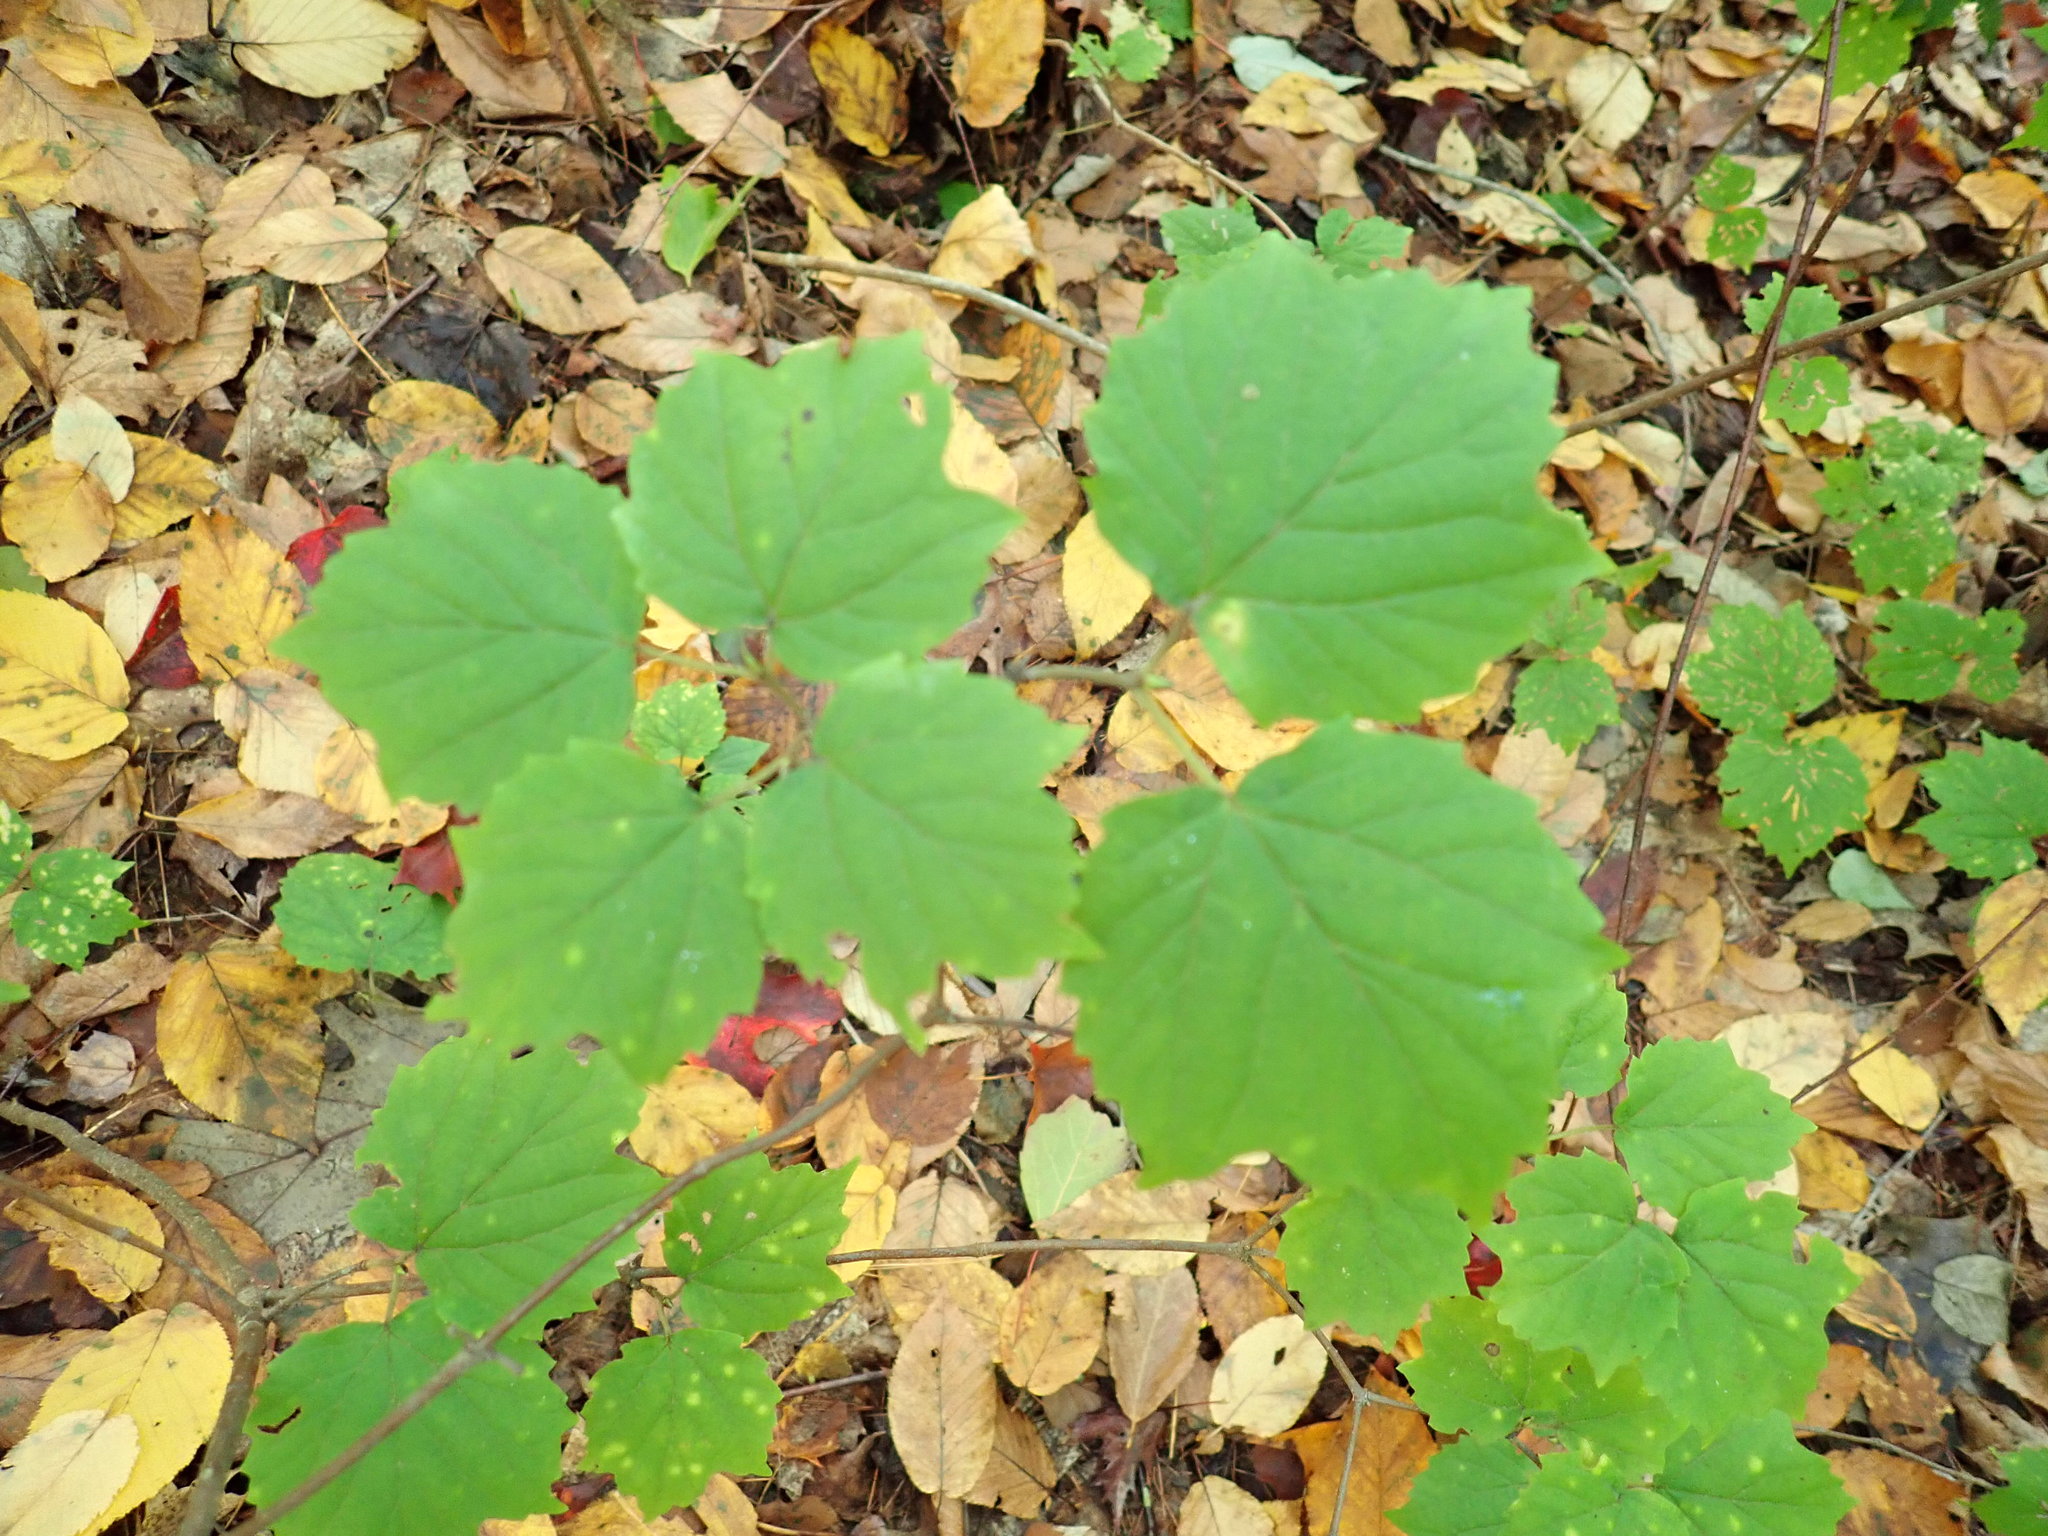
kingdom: Plantae
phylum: Tracheophyta
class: Magnoliopsida
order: Dipsacales
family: Viburnaceae
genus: Viburnum
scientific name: Viburnum acerifolium
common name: Dockmackie
